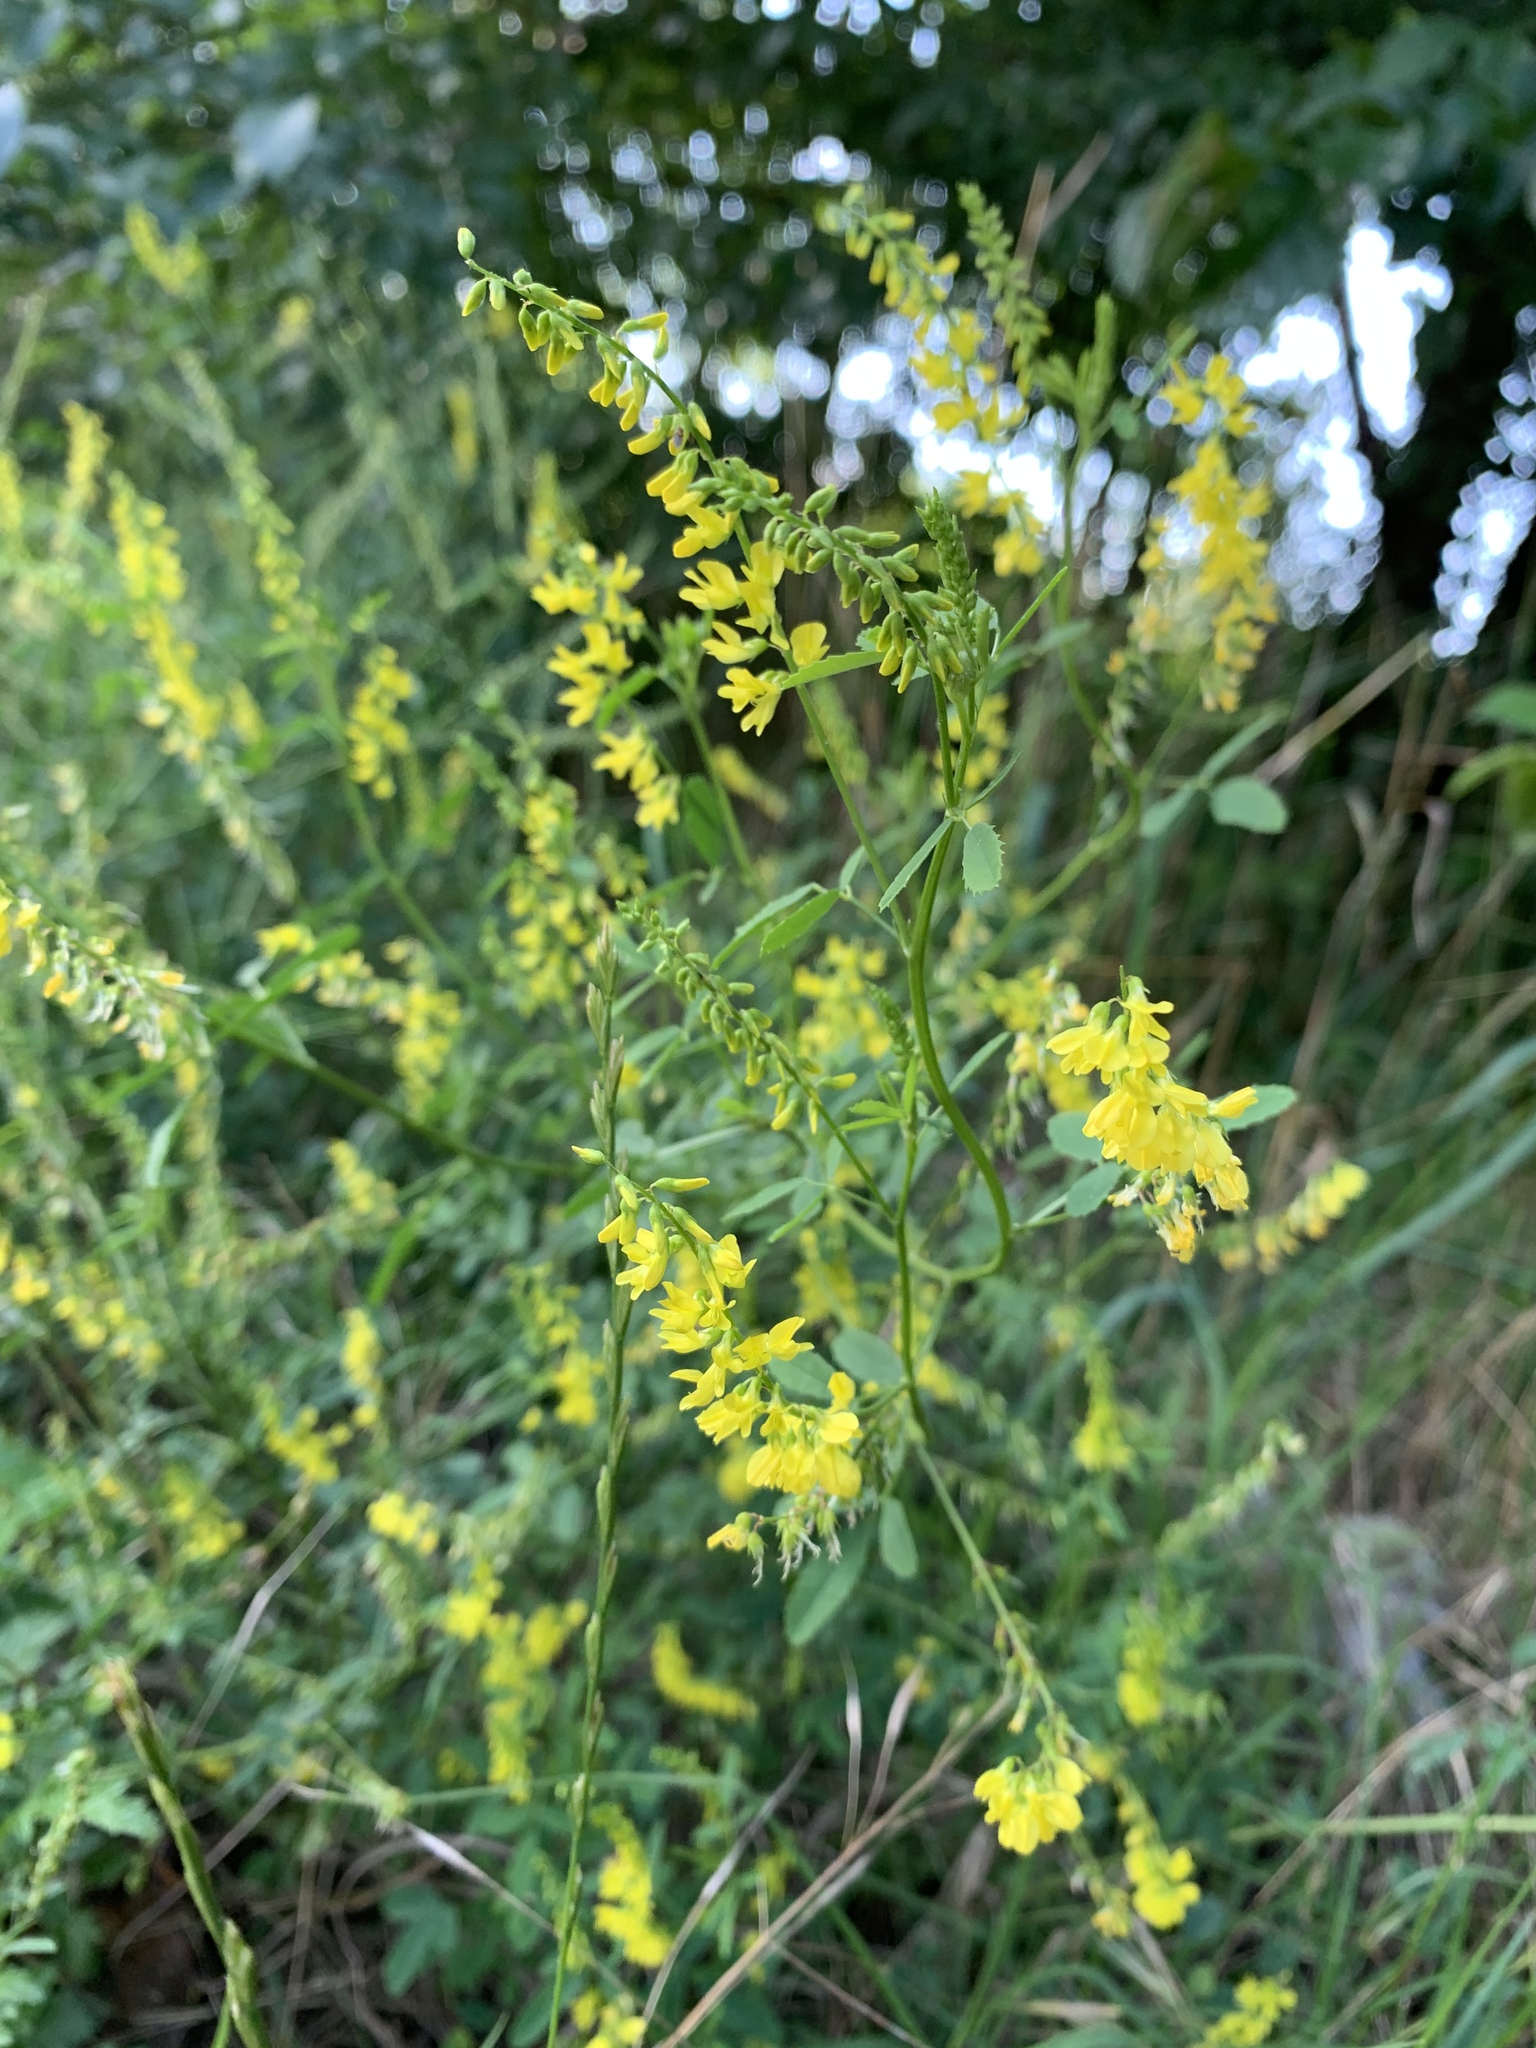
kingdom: Plantae
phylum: Tracheophyta
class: Magnoliopsida
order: Fabales
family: Fabaceae
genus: Melilotus
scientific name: Melilotus officinalis
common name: Sweetclover
